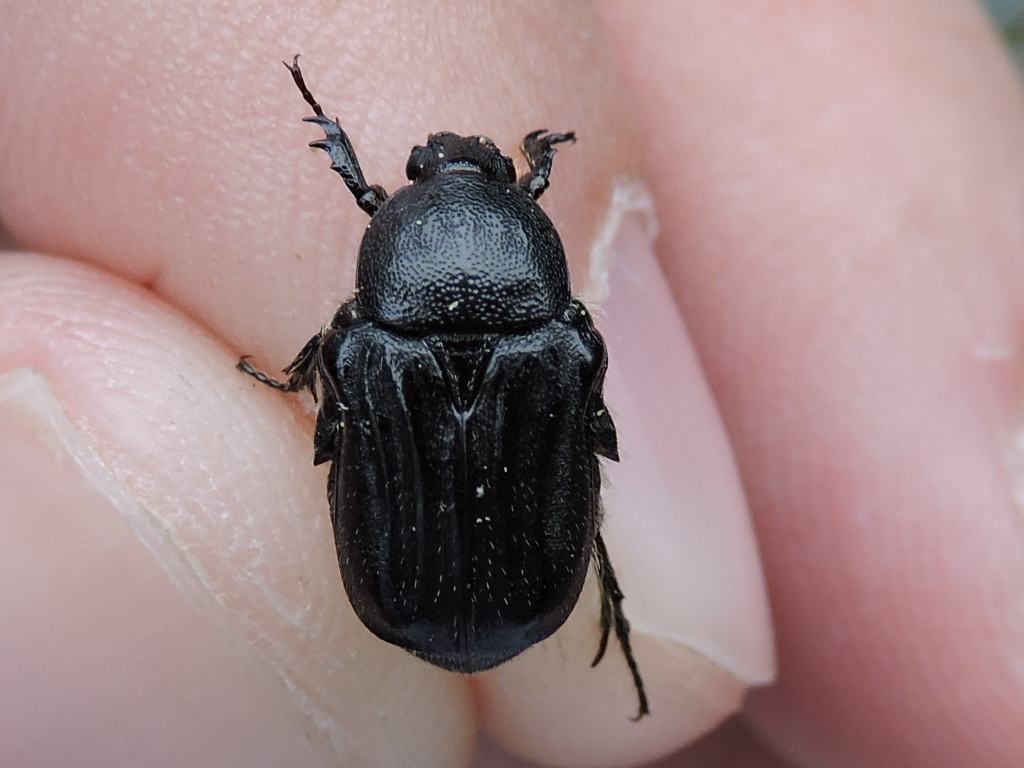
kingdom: Animalia
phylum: Arthropoda
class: Insecta
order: Coleoptera
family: Scarabaeidae
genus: Euphoria
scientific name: Euphoria kernii
